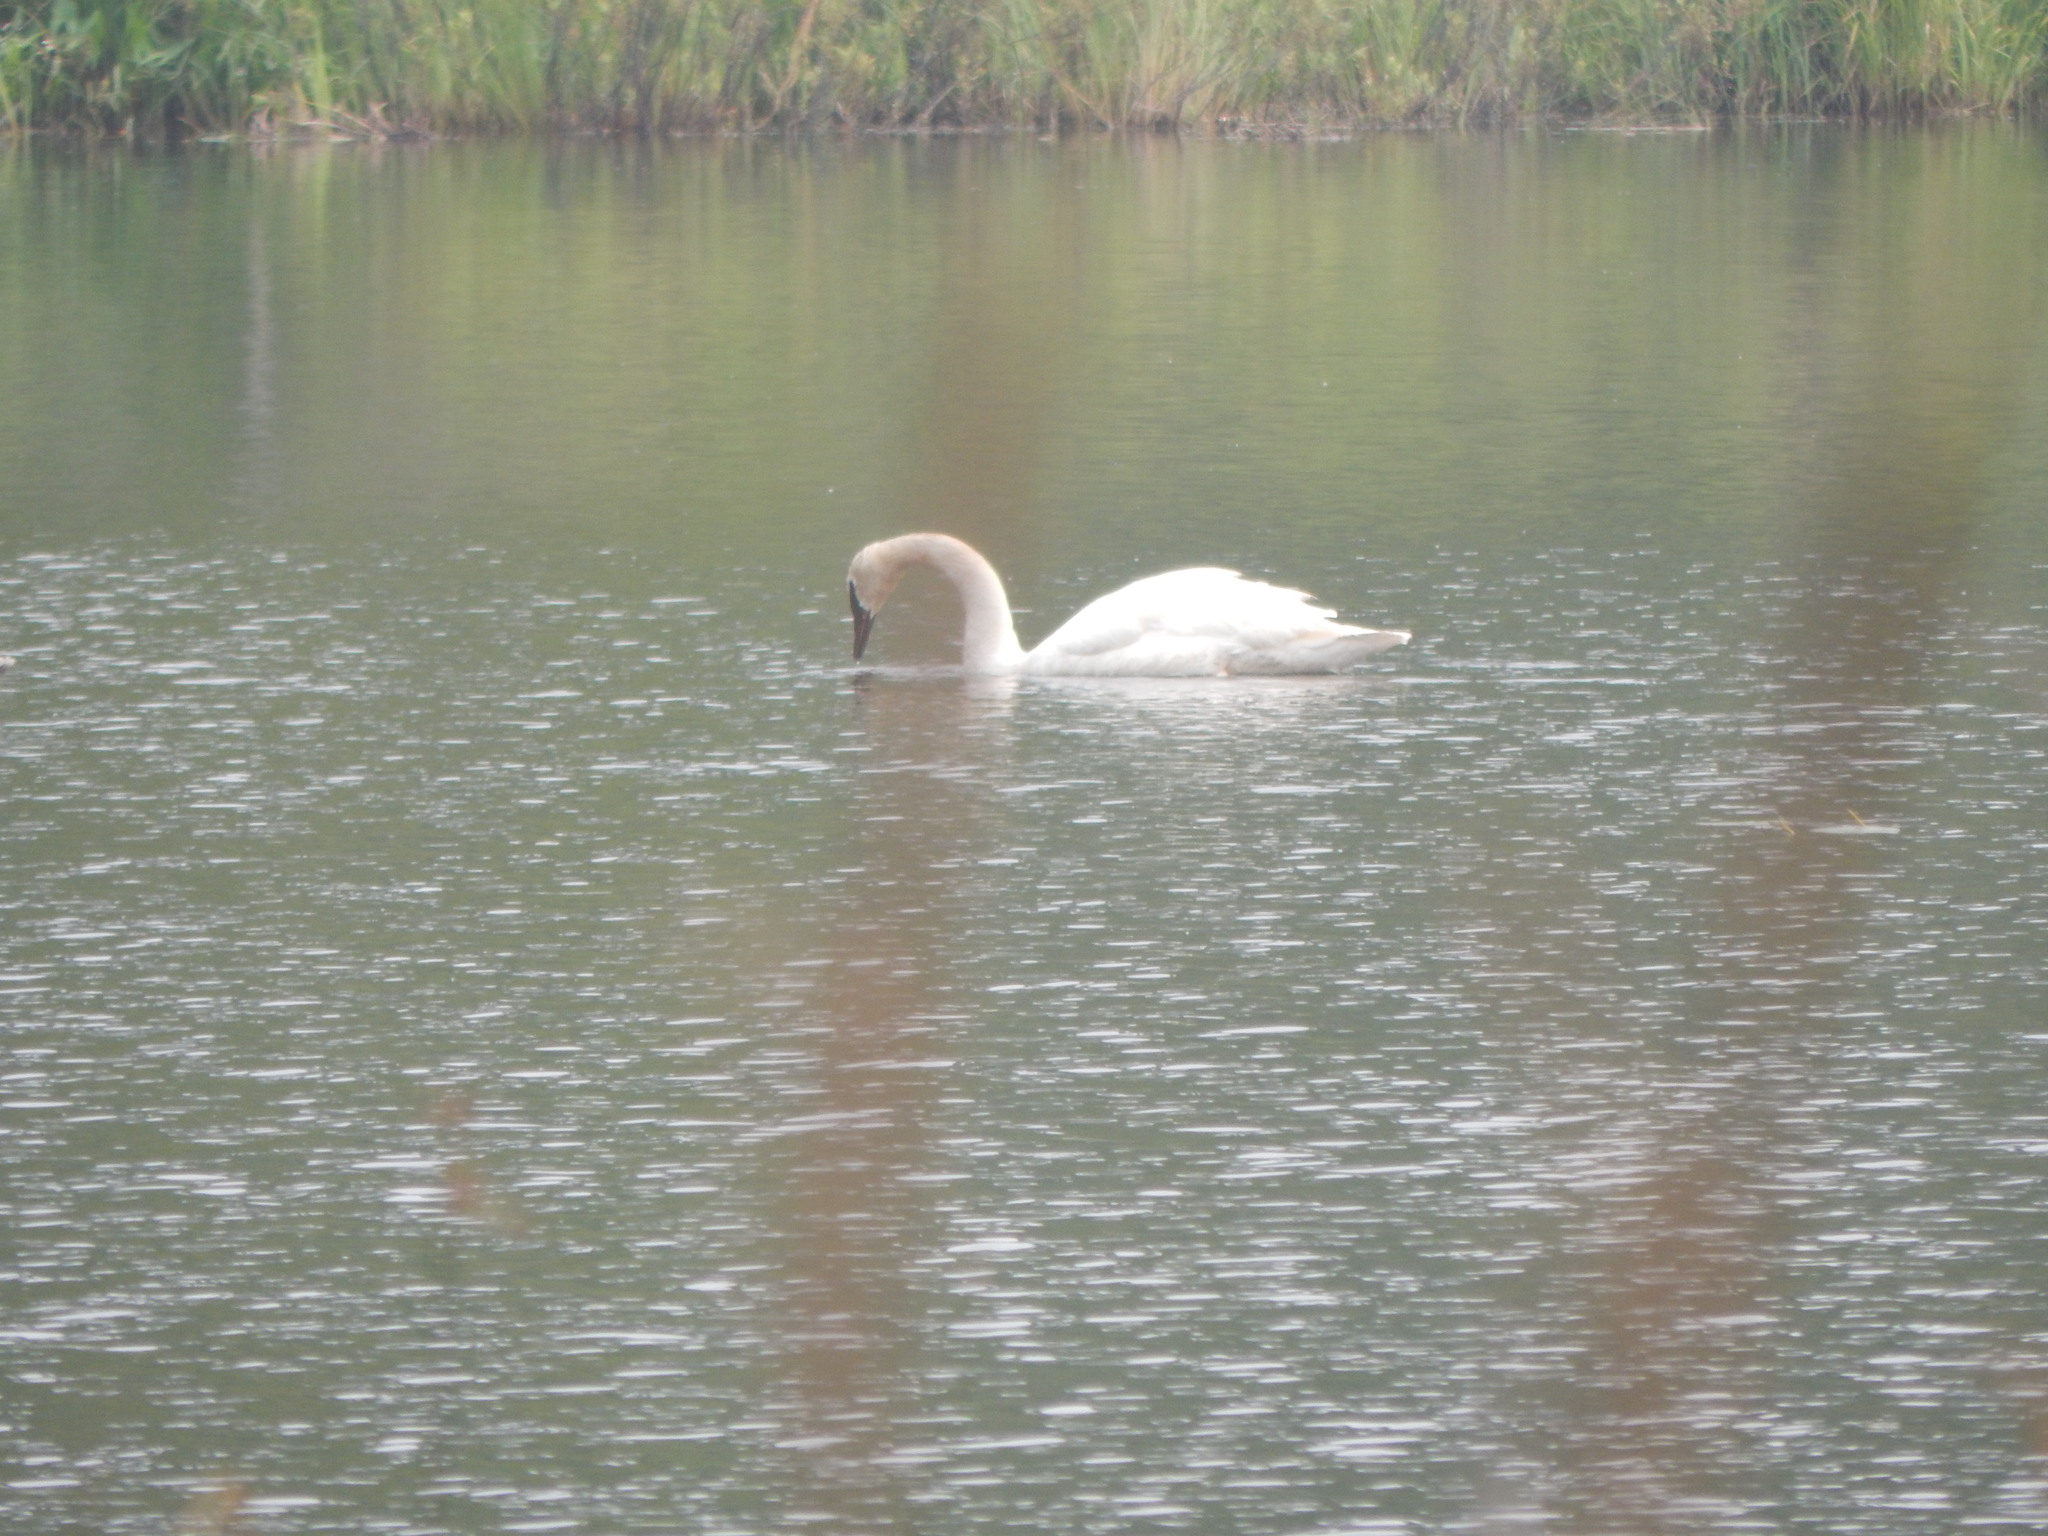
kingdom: Animalia
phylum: Chordata
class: Aves
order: Anseriformes
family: Anatidae
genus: Cygnus
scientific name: Cygnus buccinator
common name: Trumpeter swan
